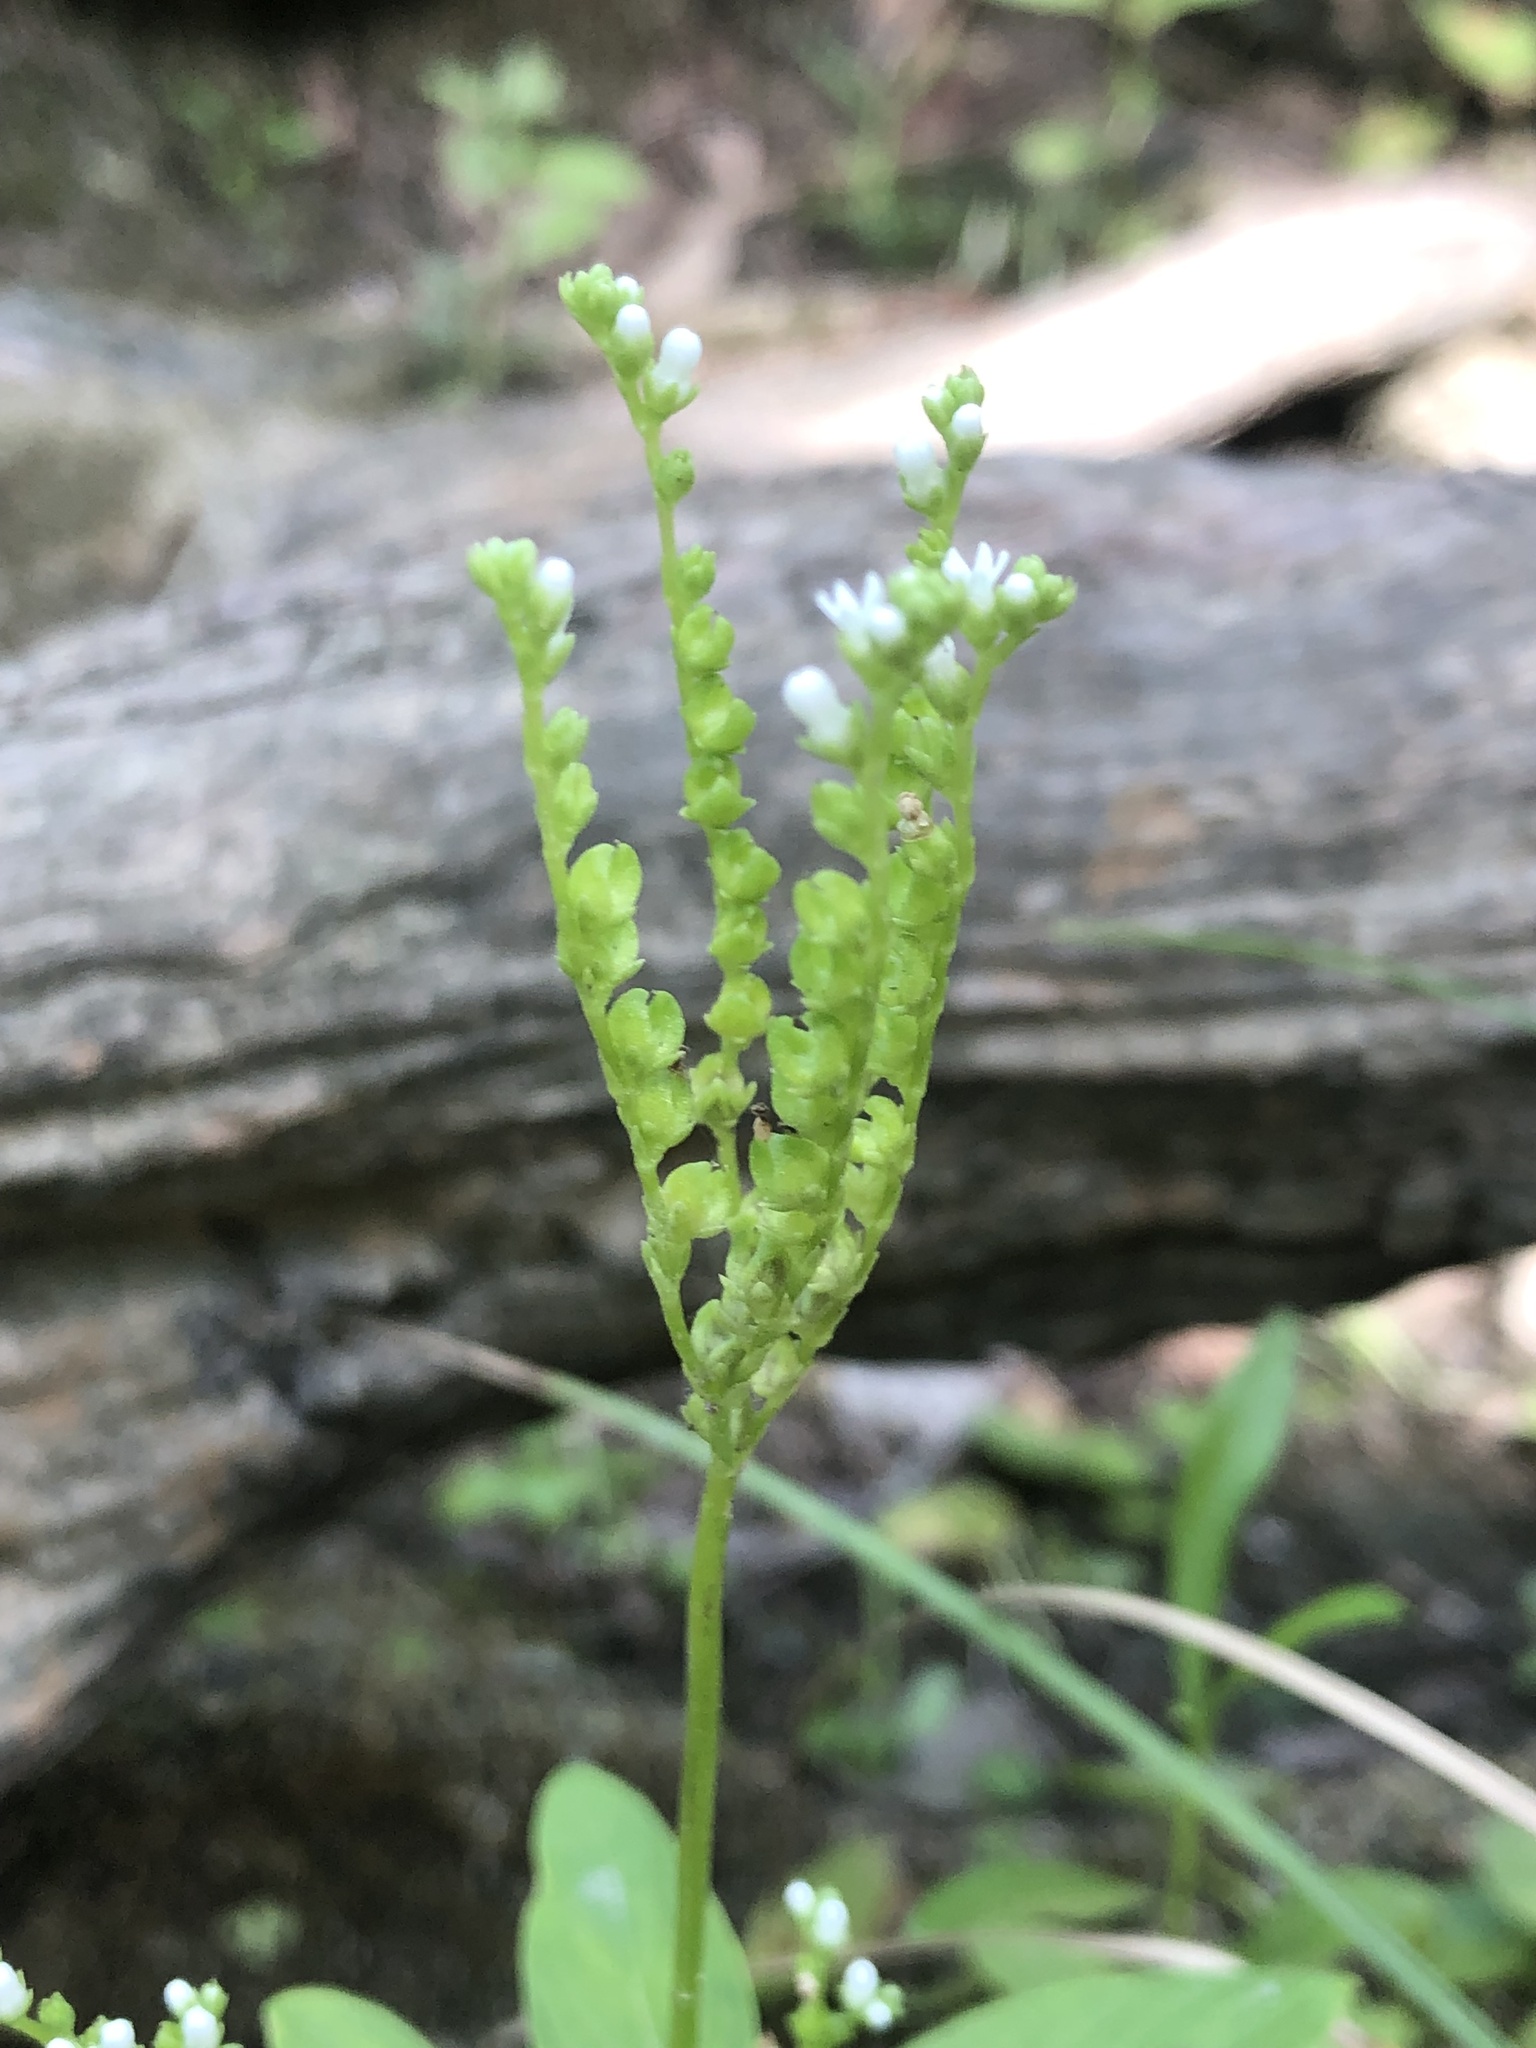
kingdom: Plantae
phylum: Tracheophyta
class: Magnoliopsida
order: Gentianales
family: Loganiaceae
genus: Mitreola
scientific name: Mitreola petiolata
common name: Lax hornpod
